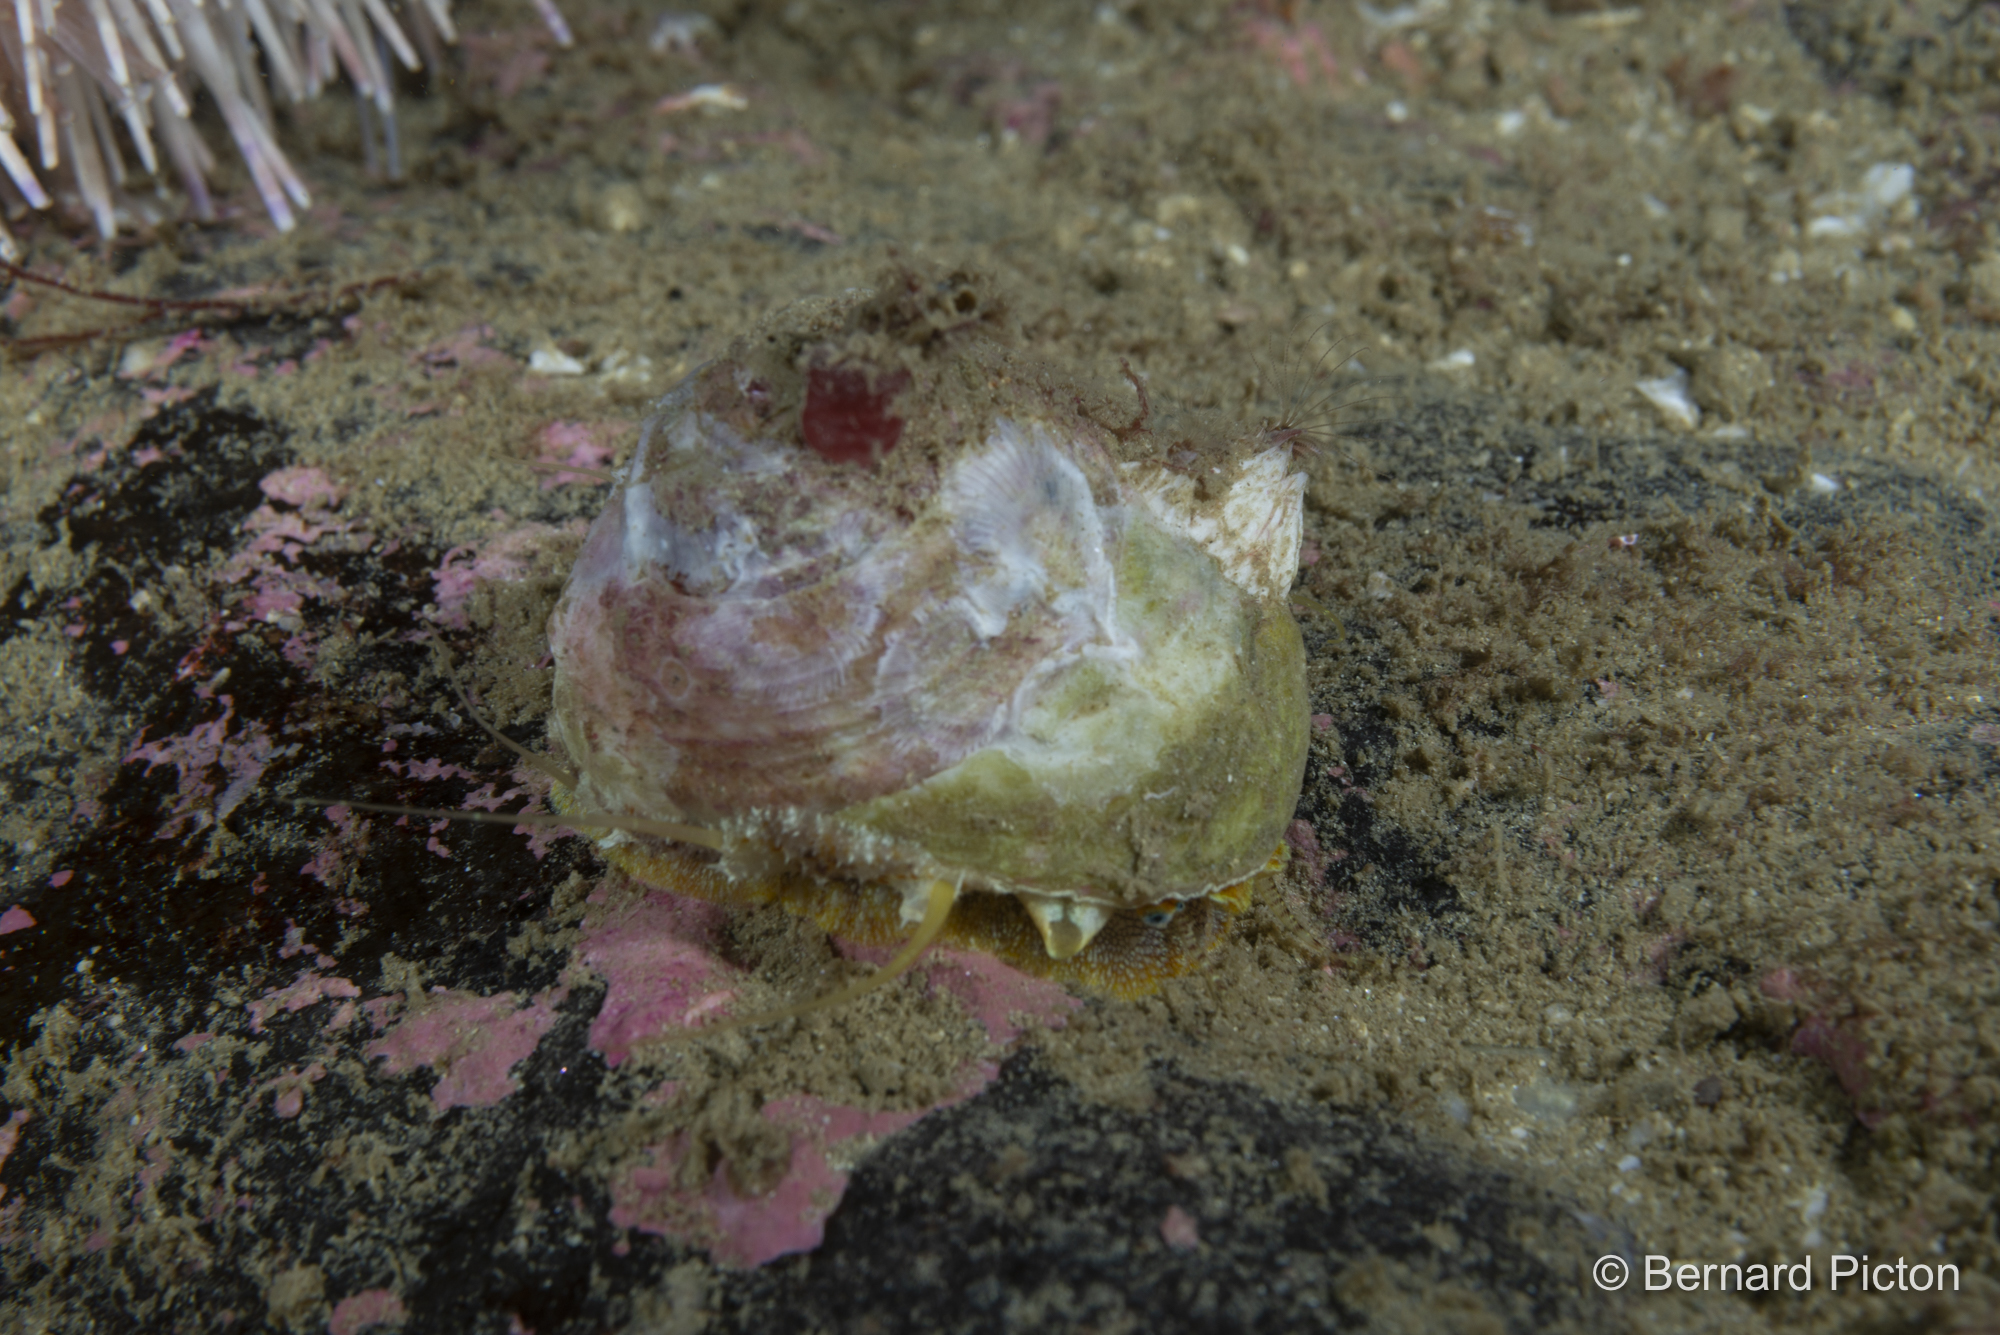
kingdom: Animalia
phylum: Mollusca
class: Gastropoda
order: Trochida
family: Trochidae
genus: Gibbula
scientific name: Gibbula magus
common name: Turban top shell
